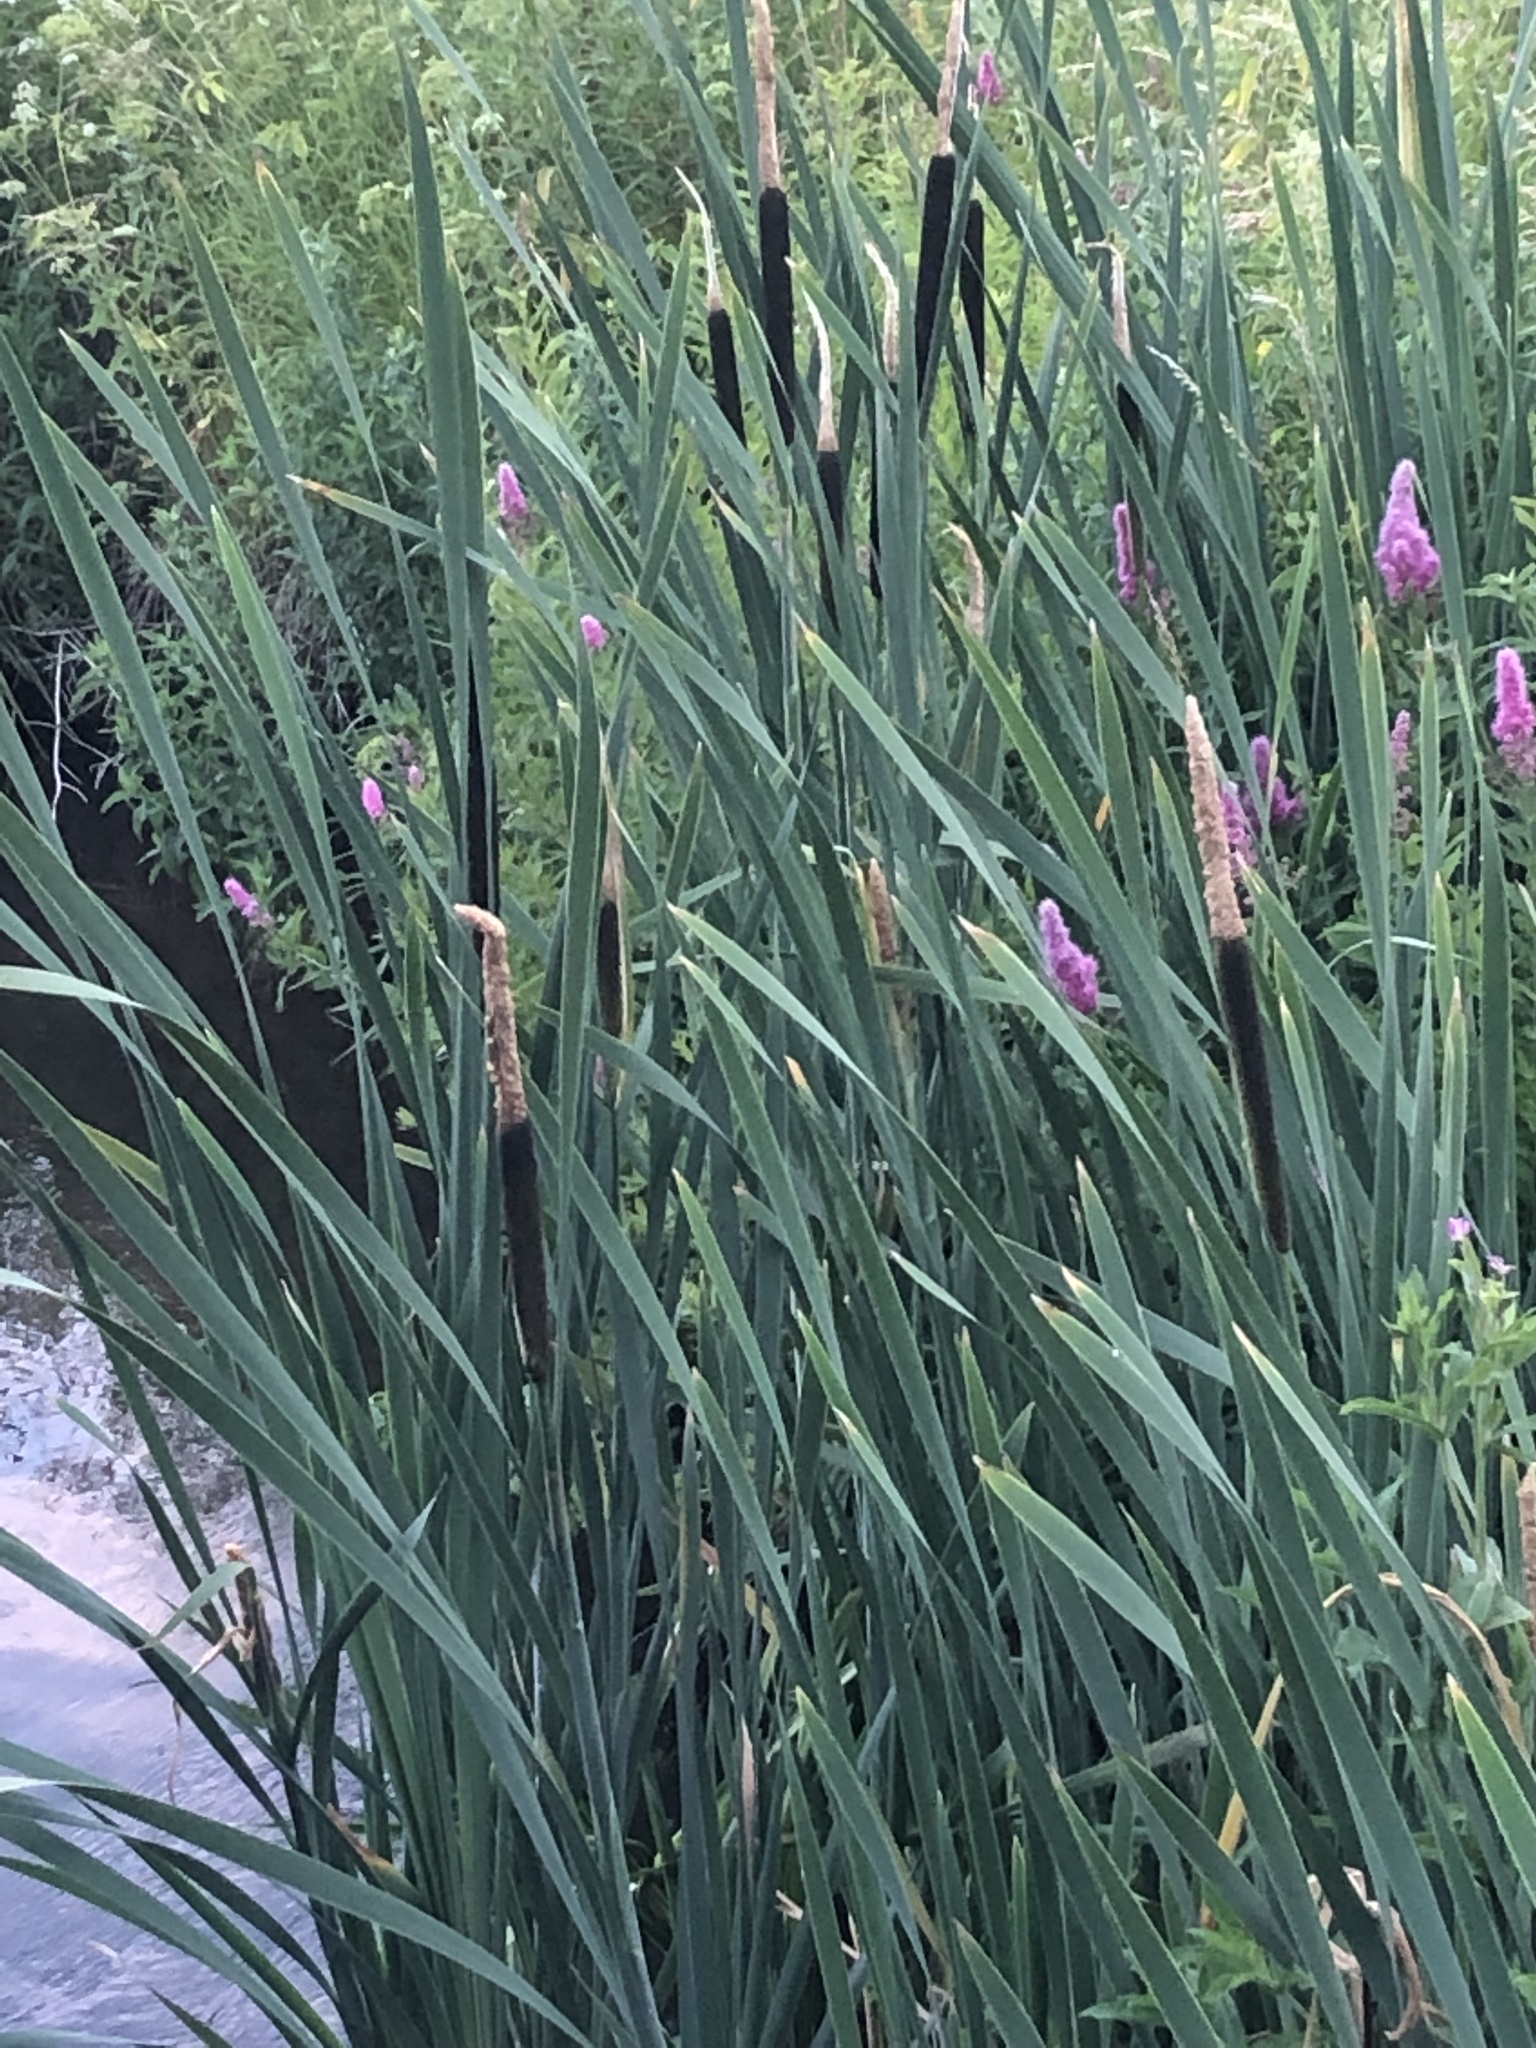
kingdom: Plantae
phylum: Tracheophyta
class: Liliopsida
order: Poales
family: Typhaceae
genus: Typha
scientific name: Typha latifolia
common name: Broadleaf cattail
